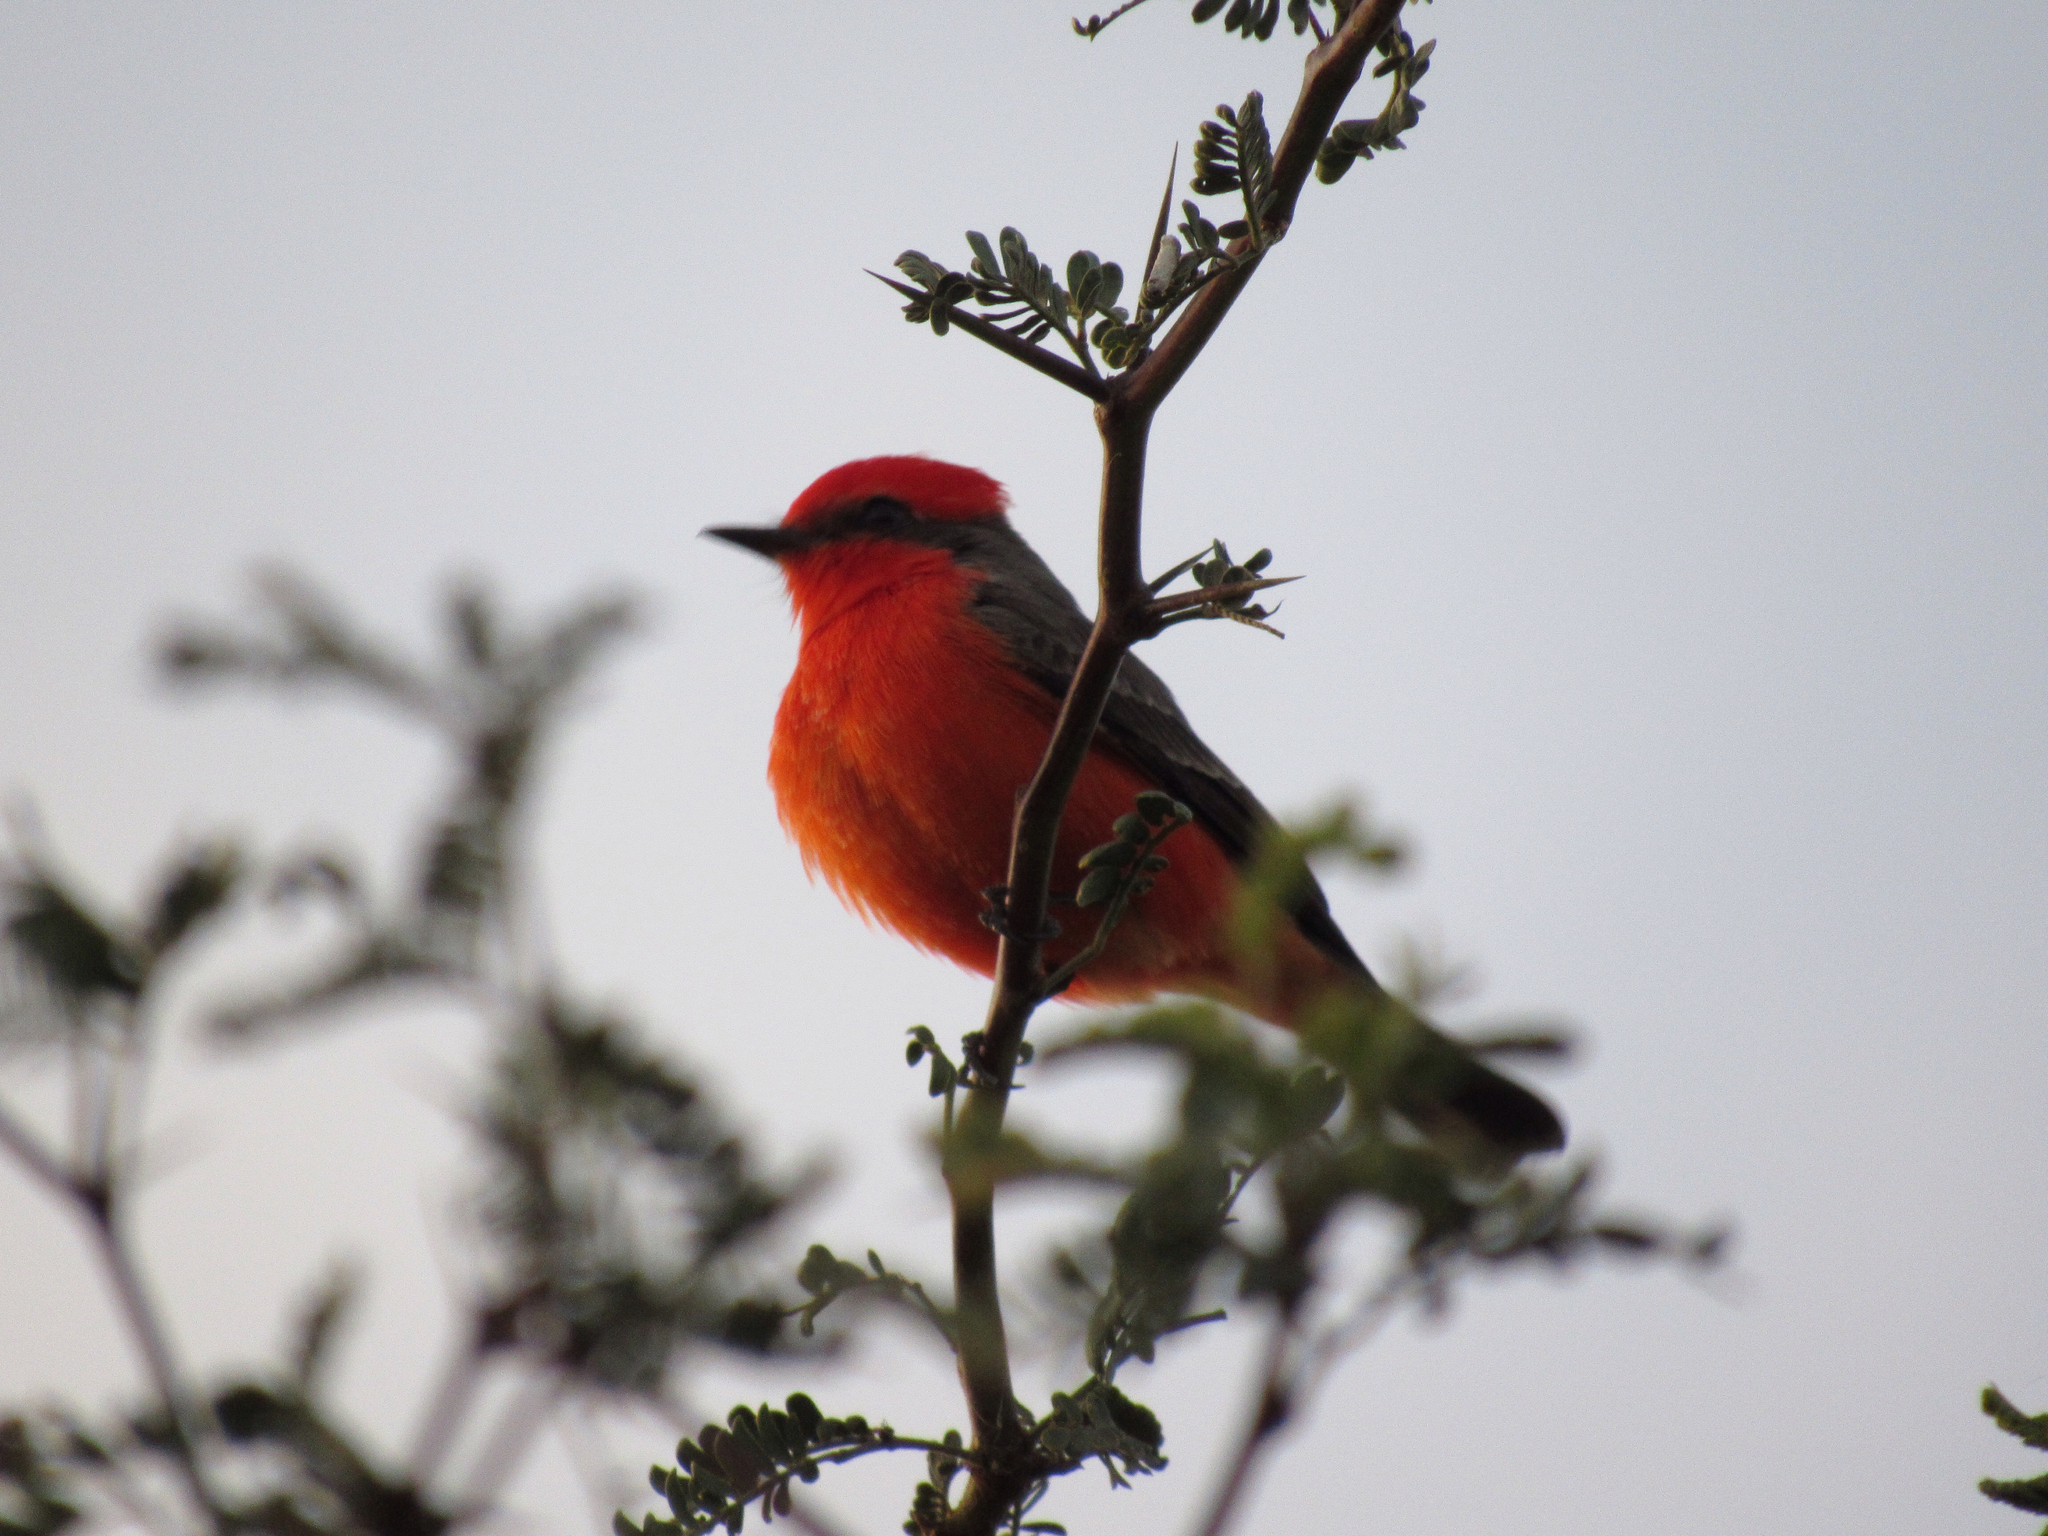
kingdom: Animalia
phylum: Chordata
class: Aves
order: Passeriformes
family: Tyrannidae
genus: Pyrocephalus
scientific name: Pyrocephalus rubinus
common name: Vermilion flycatcher
